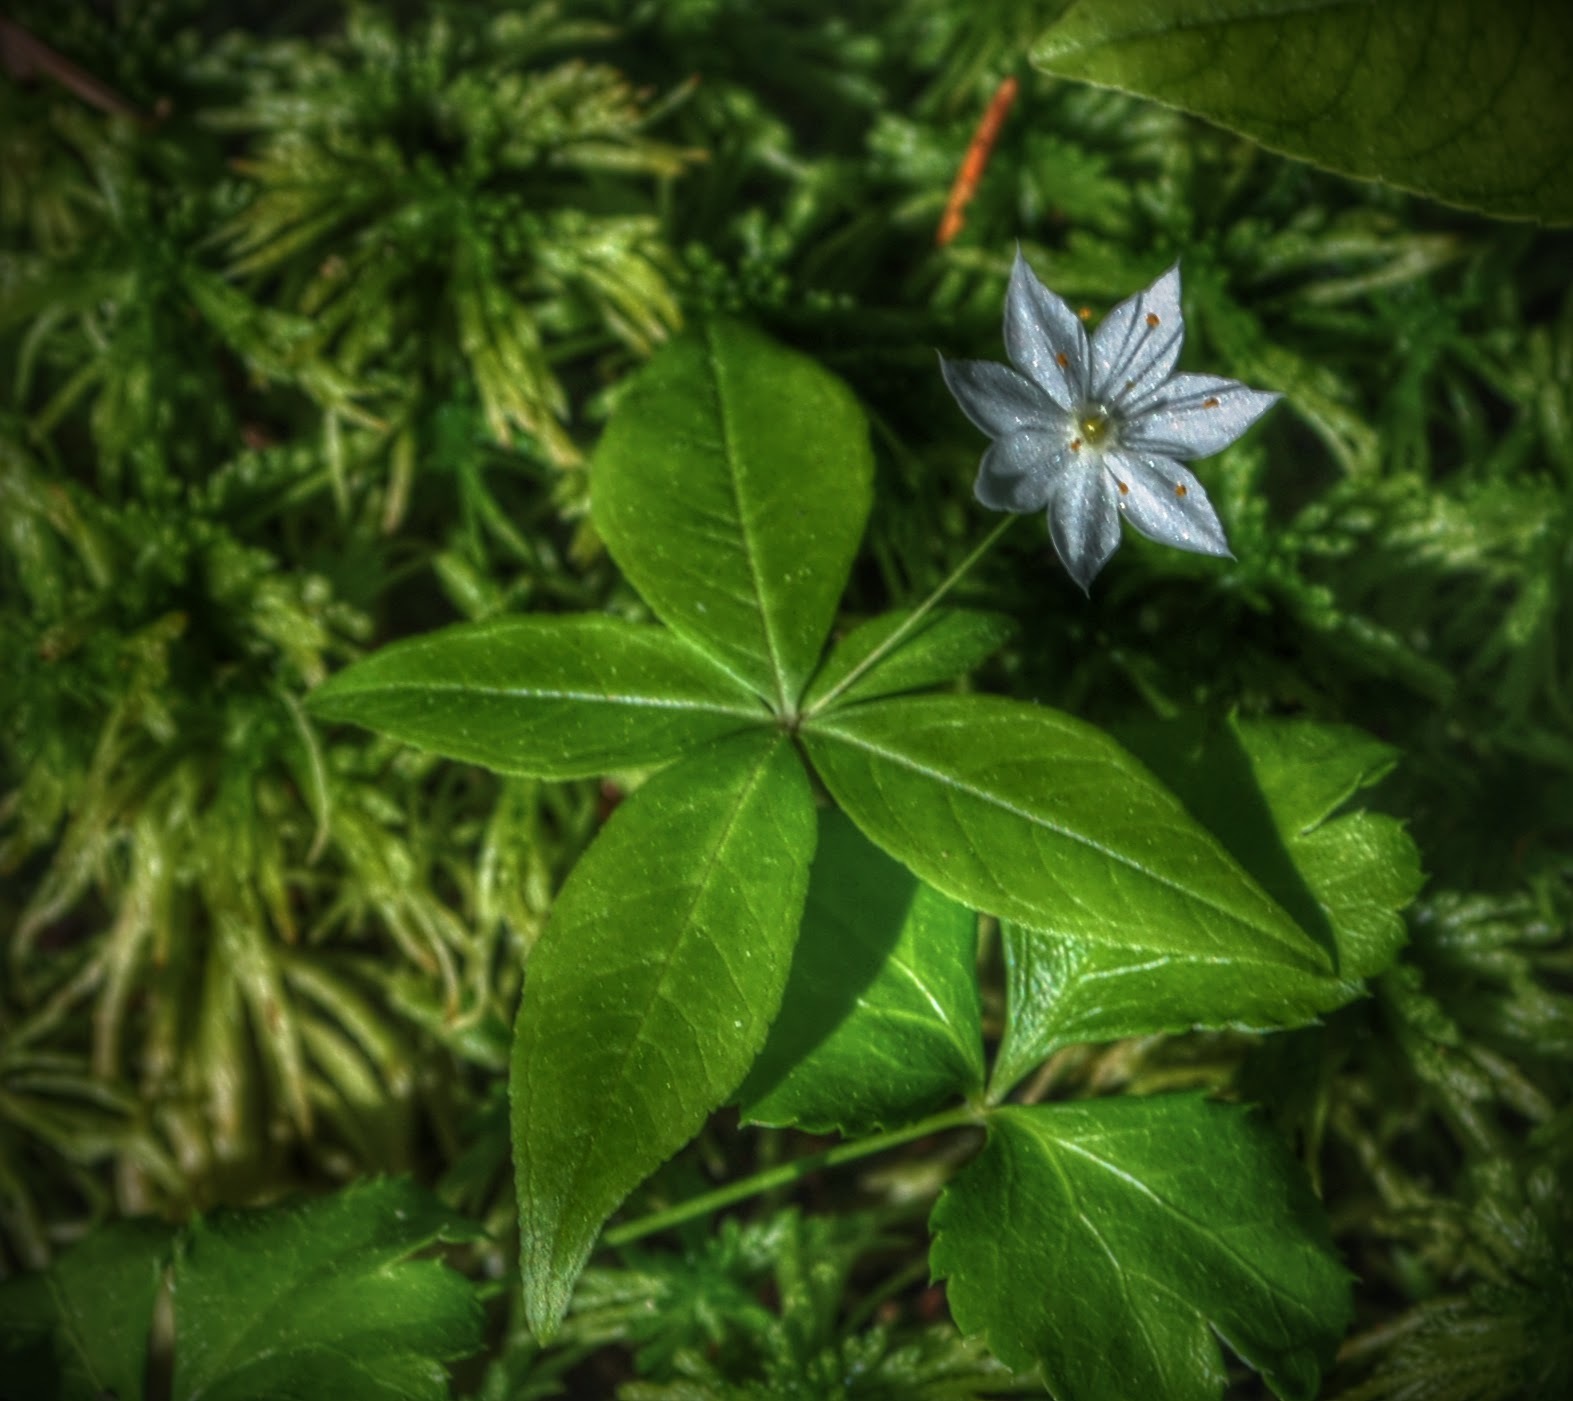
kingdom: Plantae
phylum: Tracheophyta
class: Magnoliopsida
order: Ericales
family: Primulaceae
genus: Lysimachia
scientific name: Lysimachia borealis
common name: American starflower
